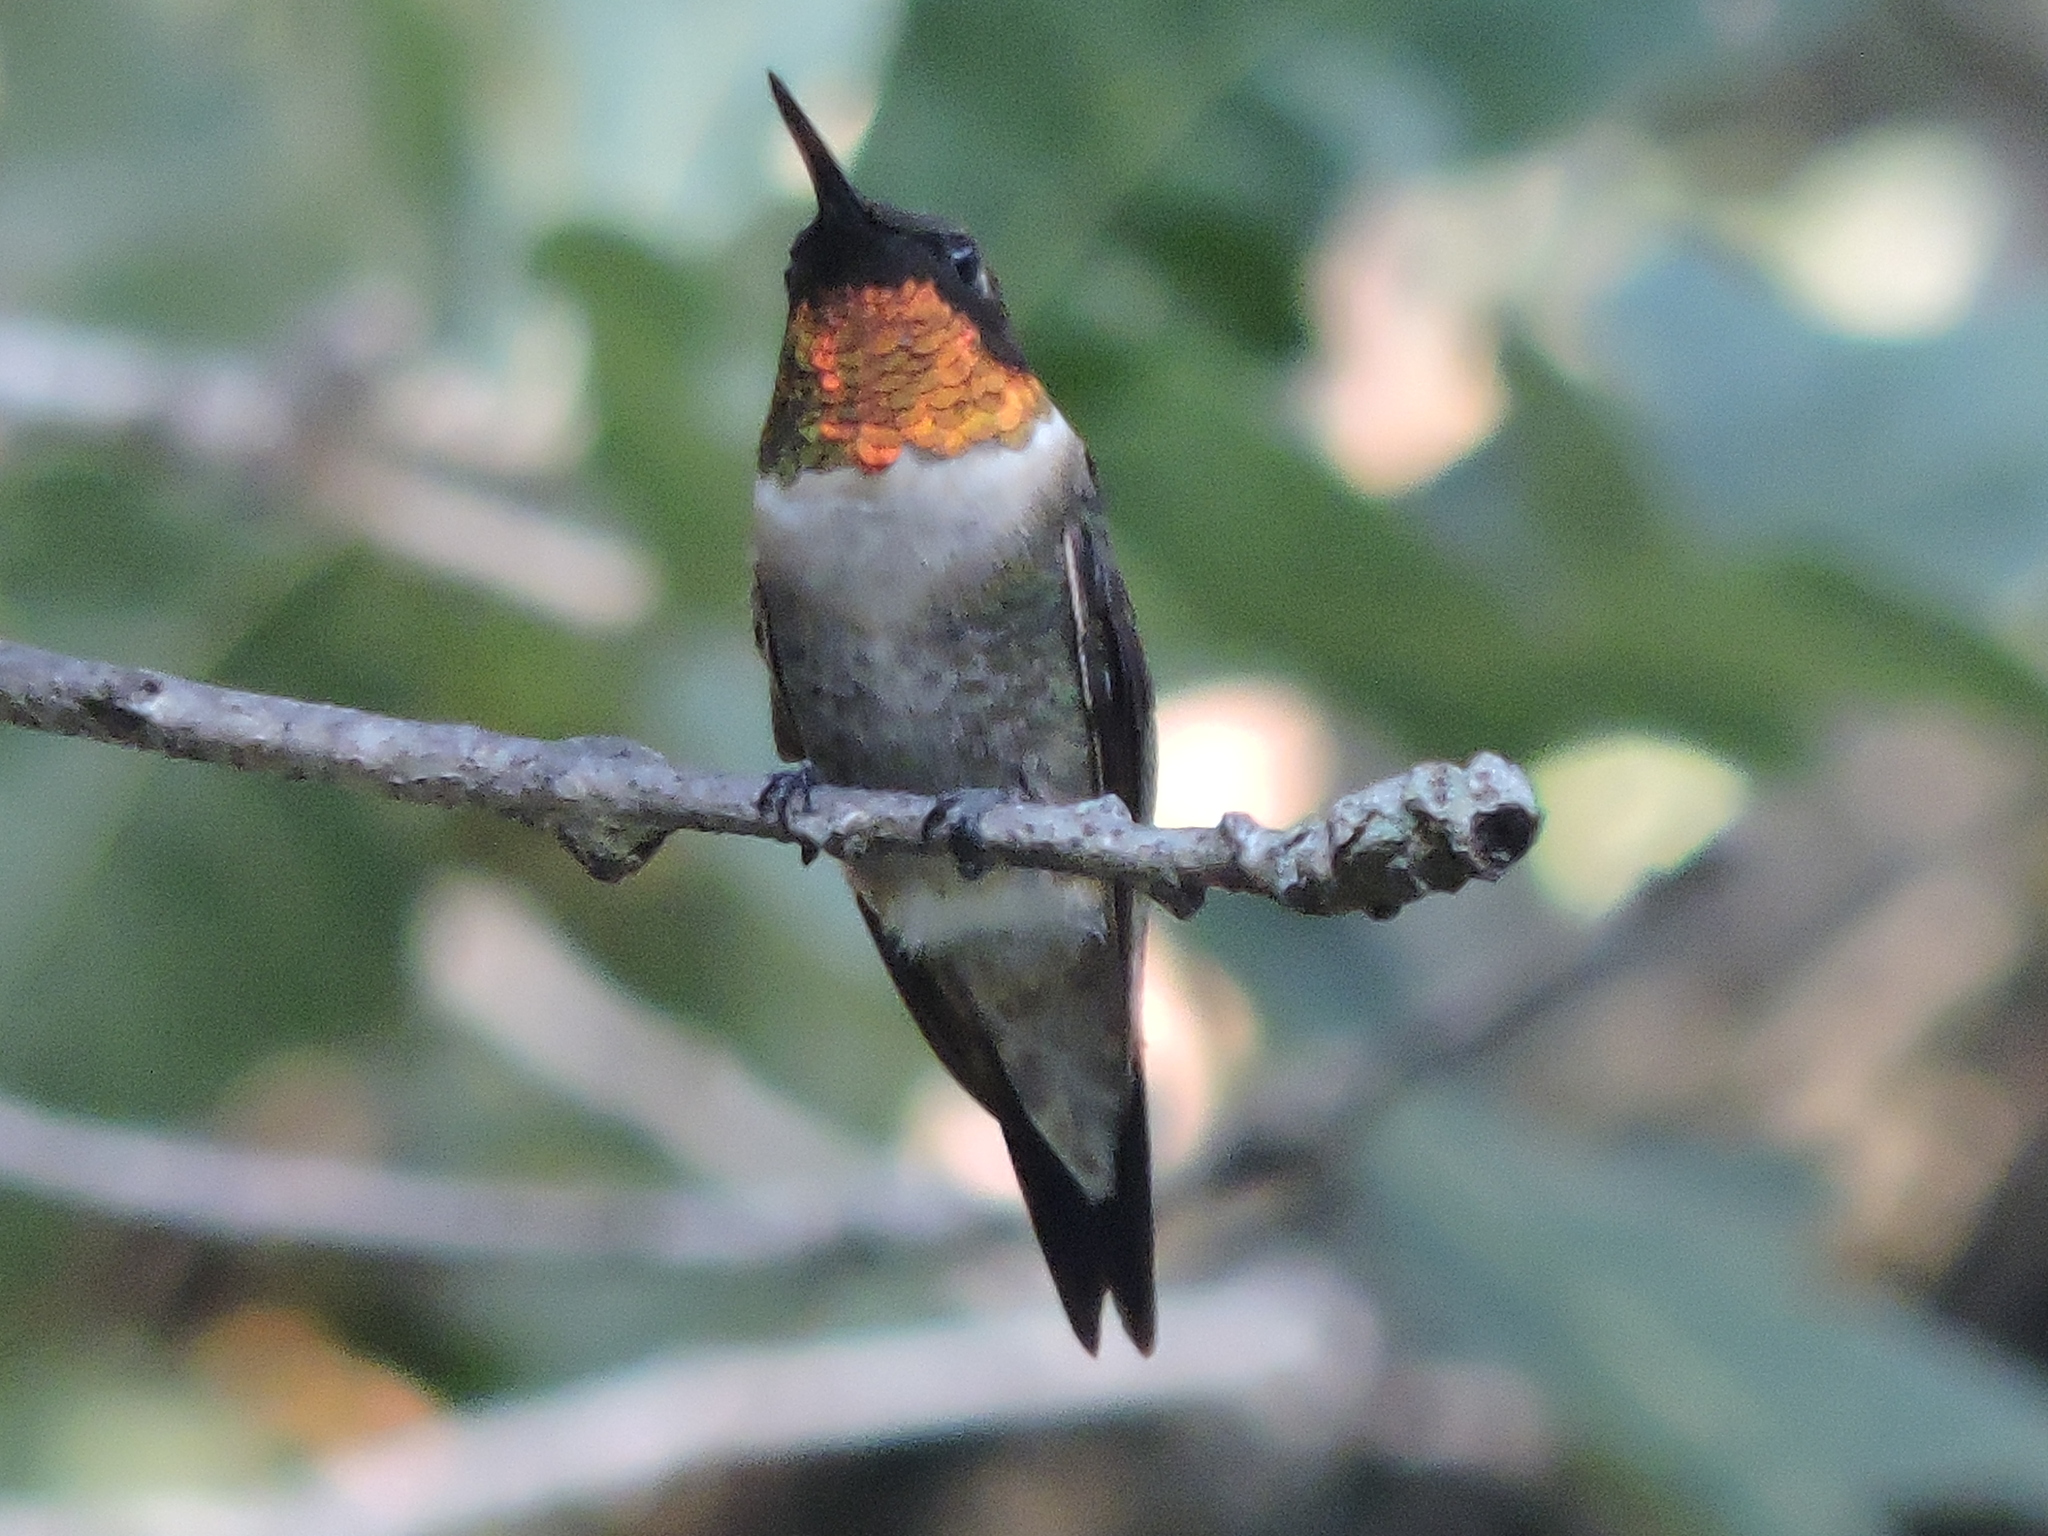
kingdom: Animalia
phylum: Chordata
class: Aves
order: Apodiformes
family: Trochilidae
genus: Archilochus
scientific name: Archilochus colubris
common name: Ruby-throated hummingbird
